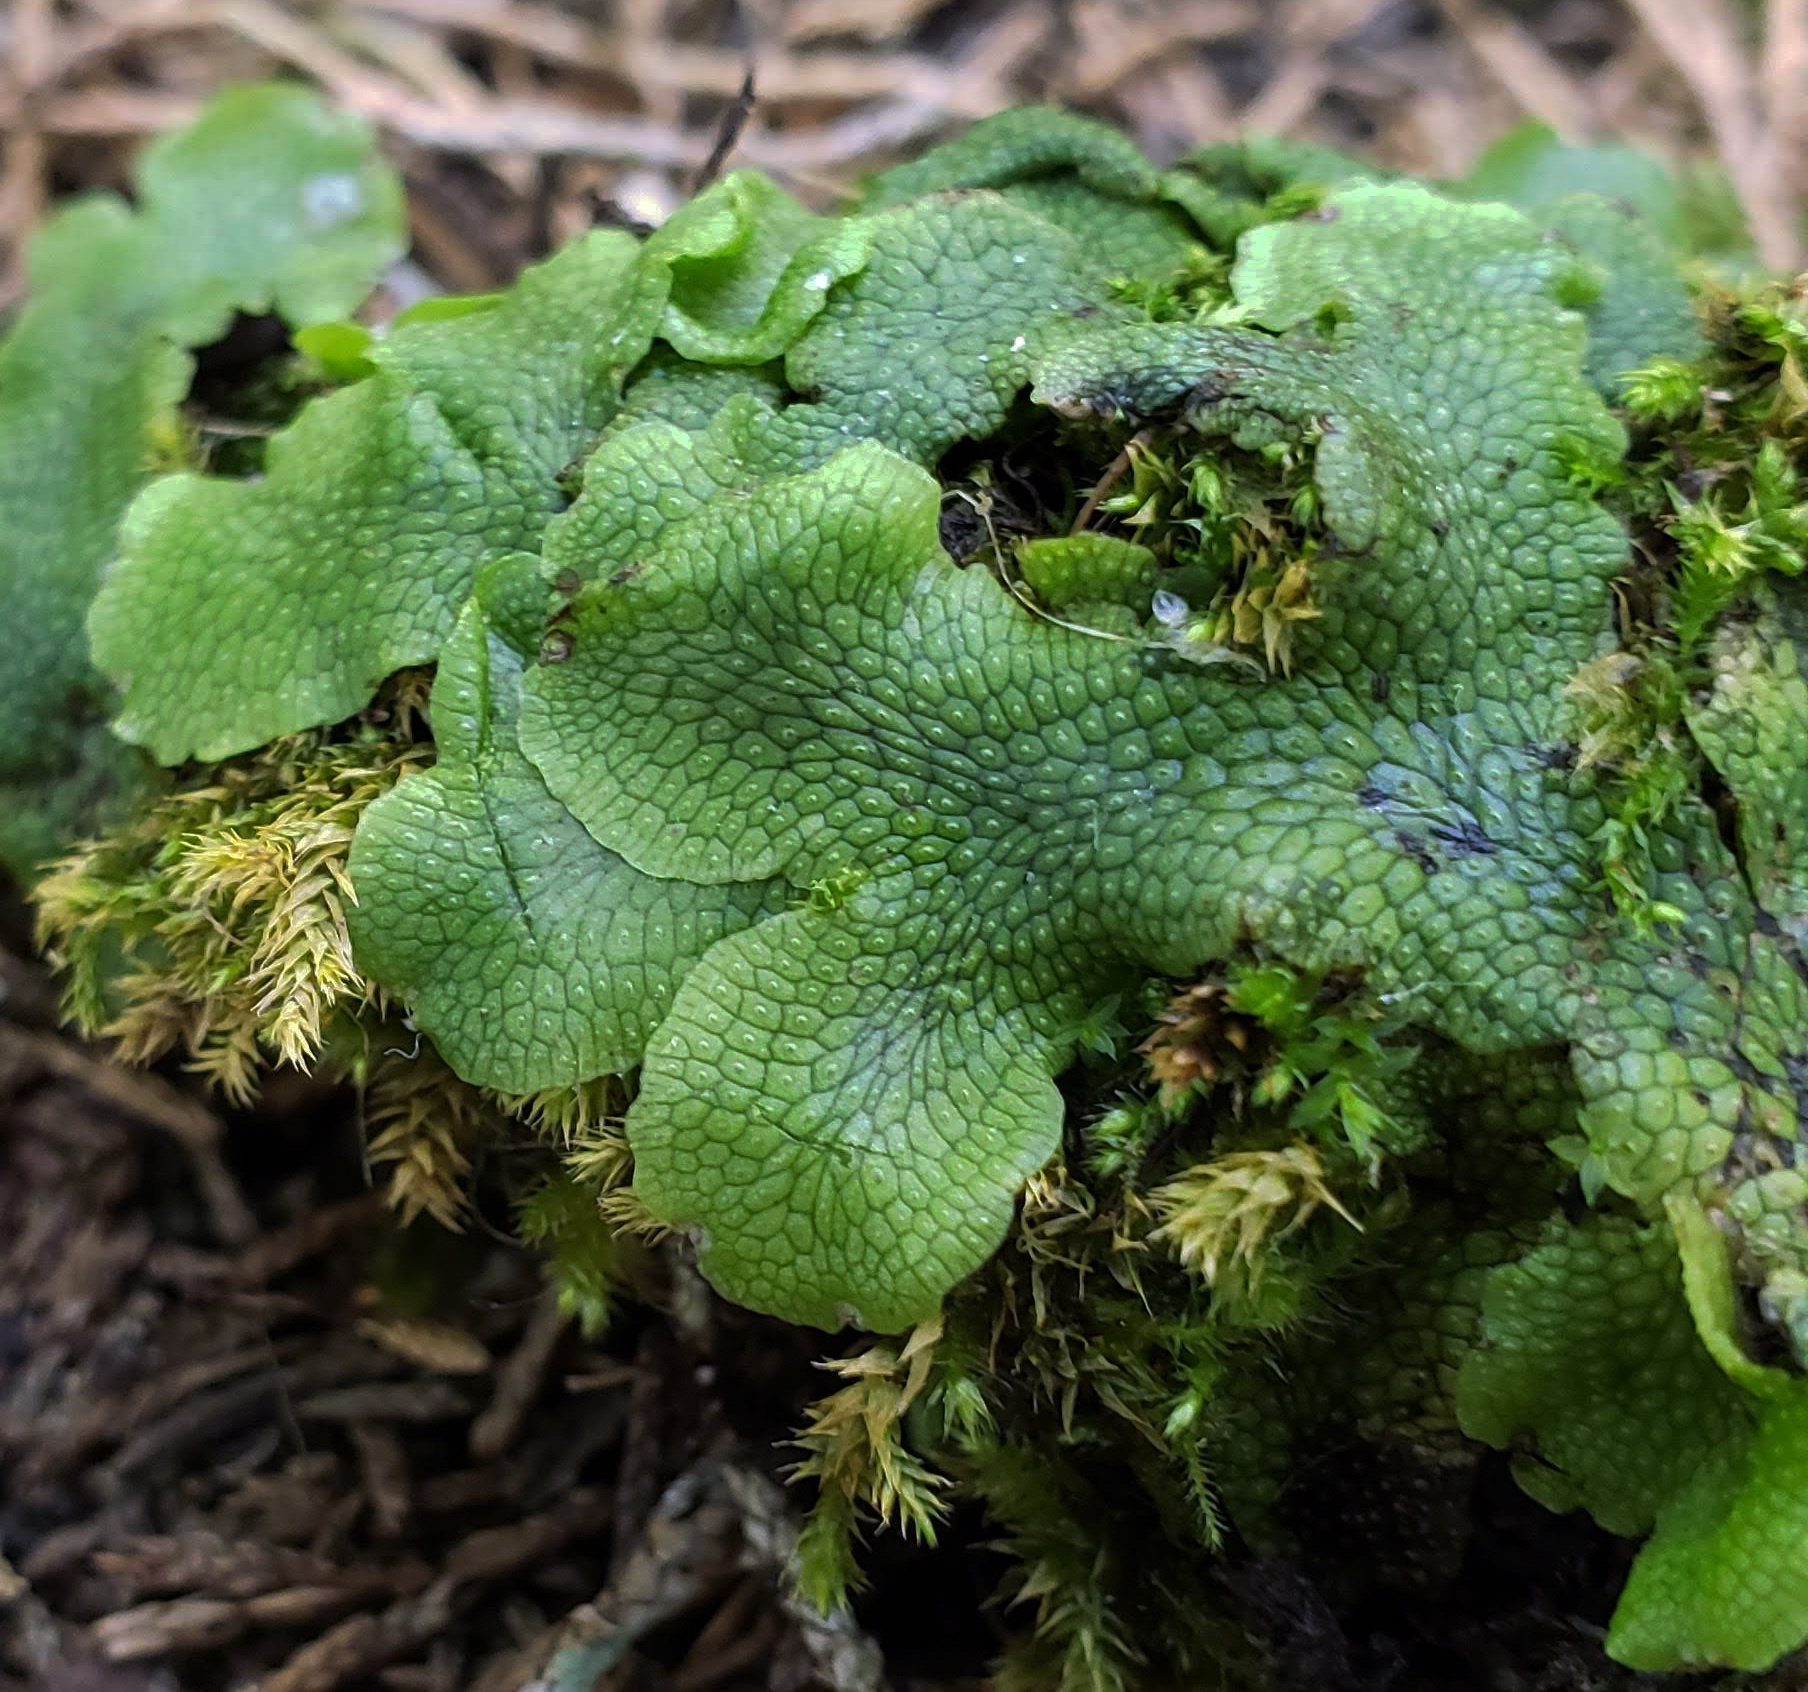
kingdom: Plantae
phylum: Marchantiophyta
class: Marchantiopsida
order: Marchantiales
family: Conocephalaceae
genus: Conocephalum
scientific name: Conocephalum salebrosum
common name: Cat-tongue liverwort
